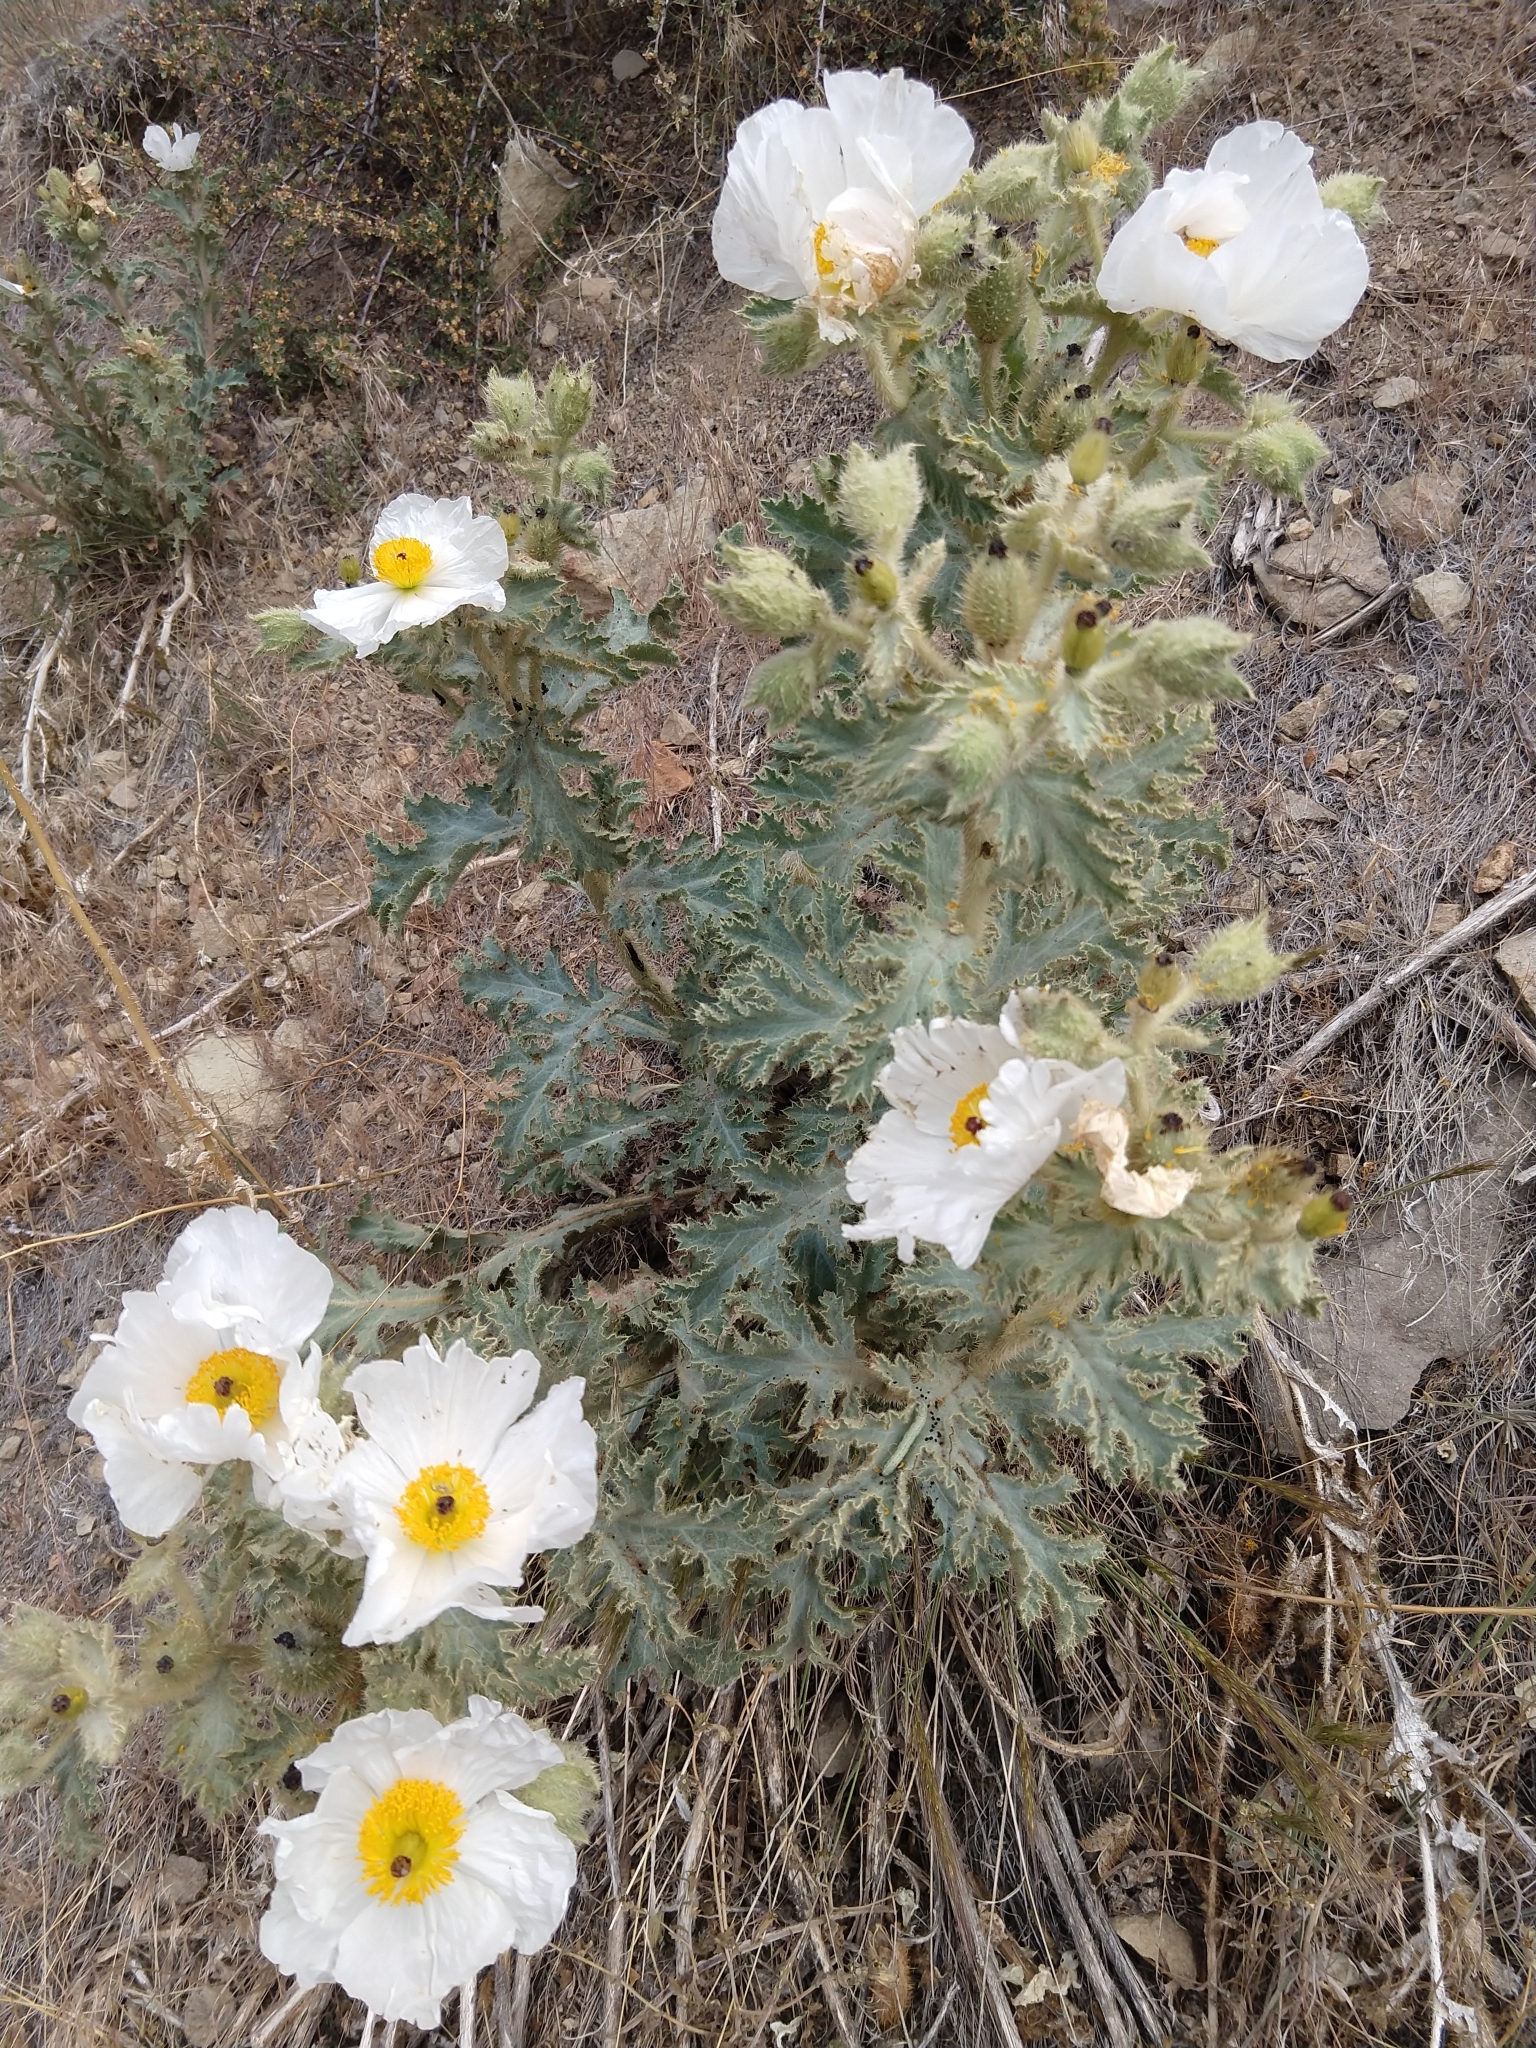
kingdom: Plantae
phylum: Tracheophyta
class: Magnoliopsida
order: Ranunculales
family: Papaveraceae
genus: Argemone
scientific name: Argemone munita
